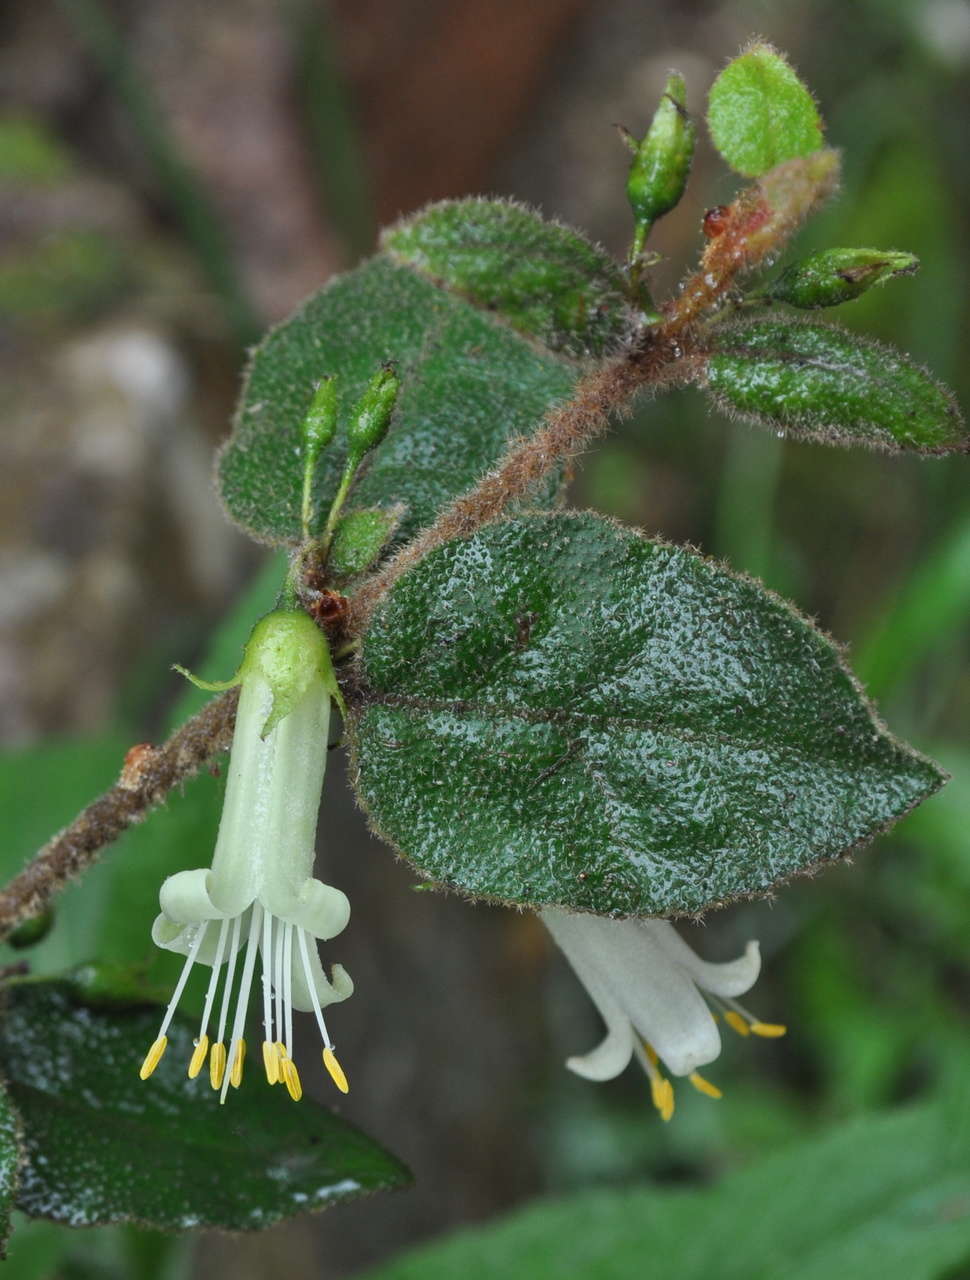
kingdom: Plantae
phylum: Tracheophyta
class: Magnoliopsida
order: Sapindales
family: Rutaceae
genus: Correa
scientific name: Correa aemula
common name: Hairy correa
